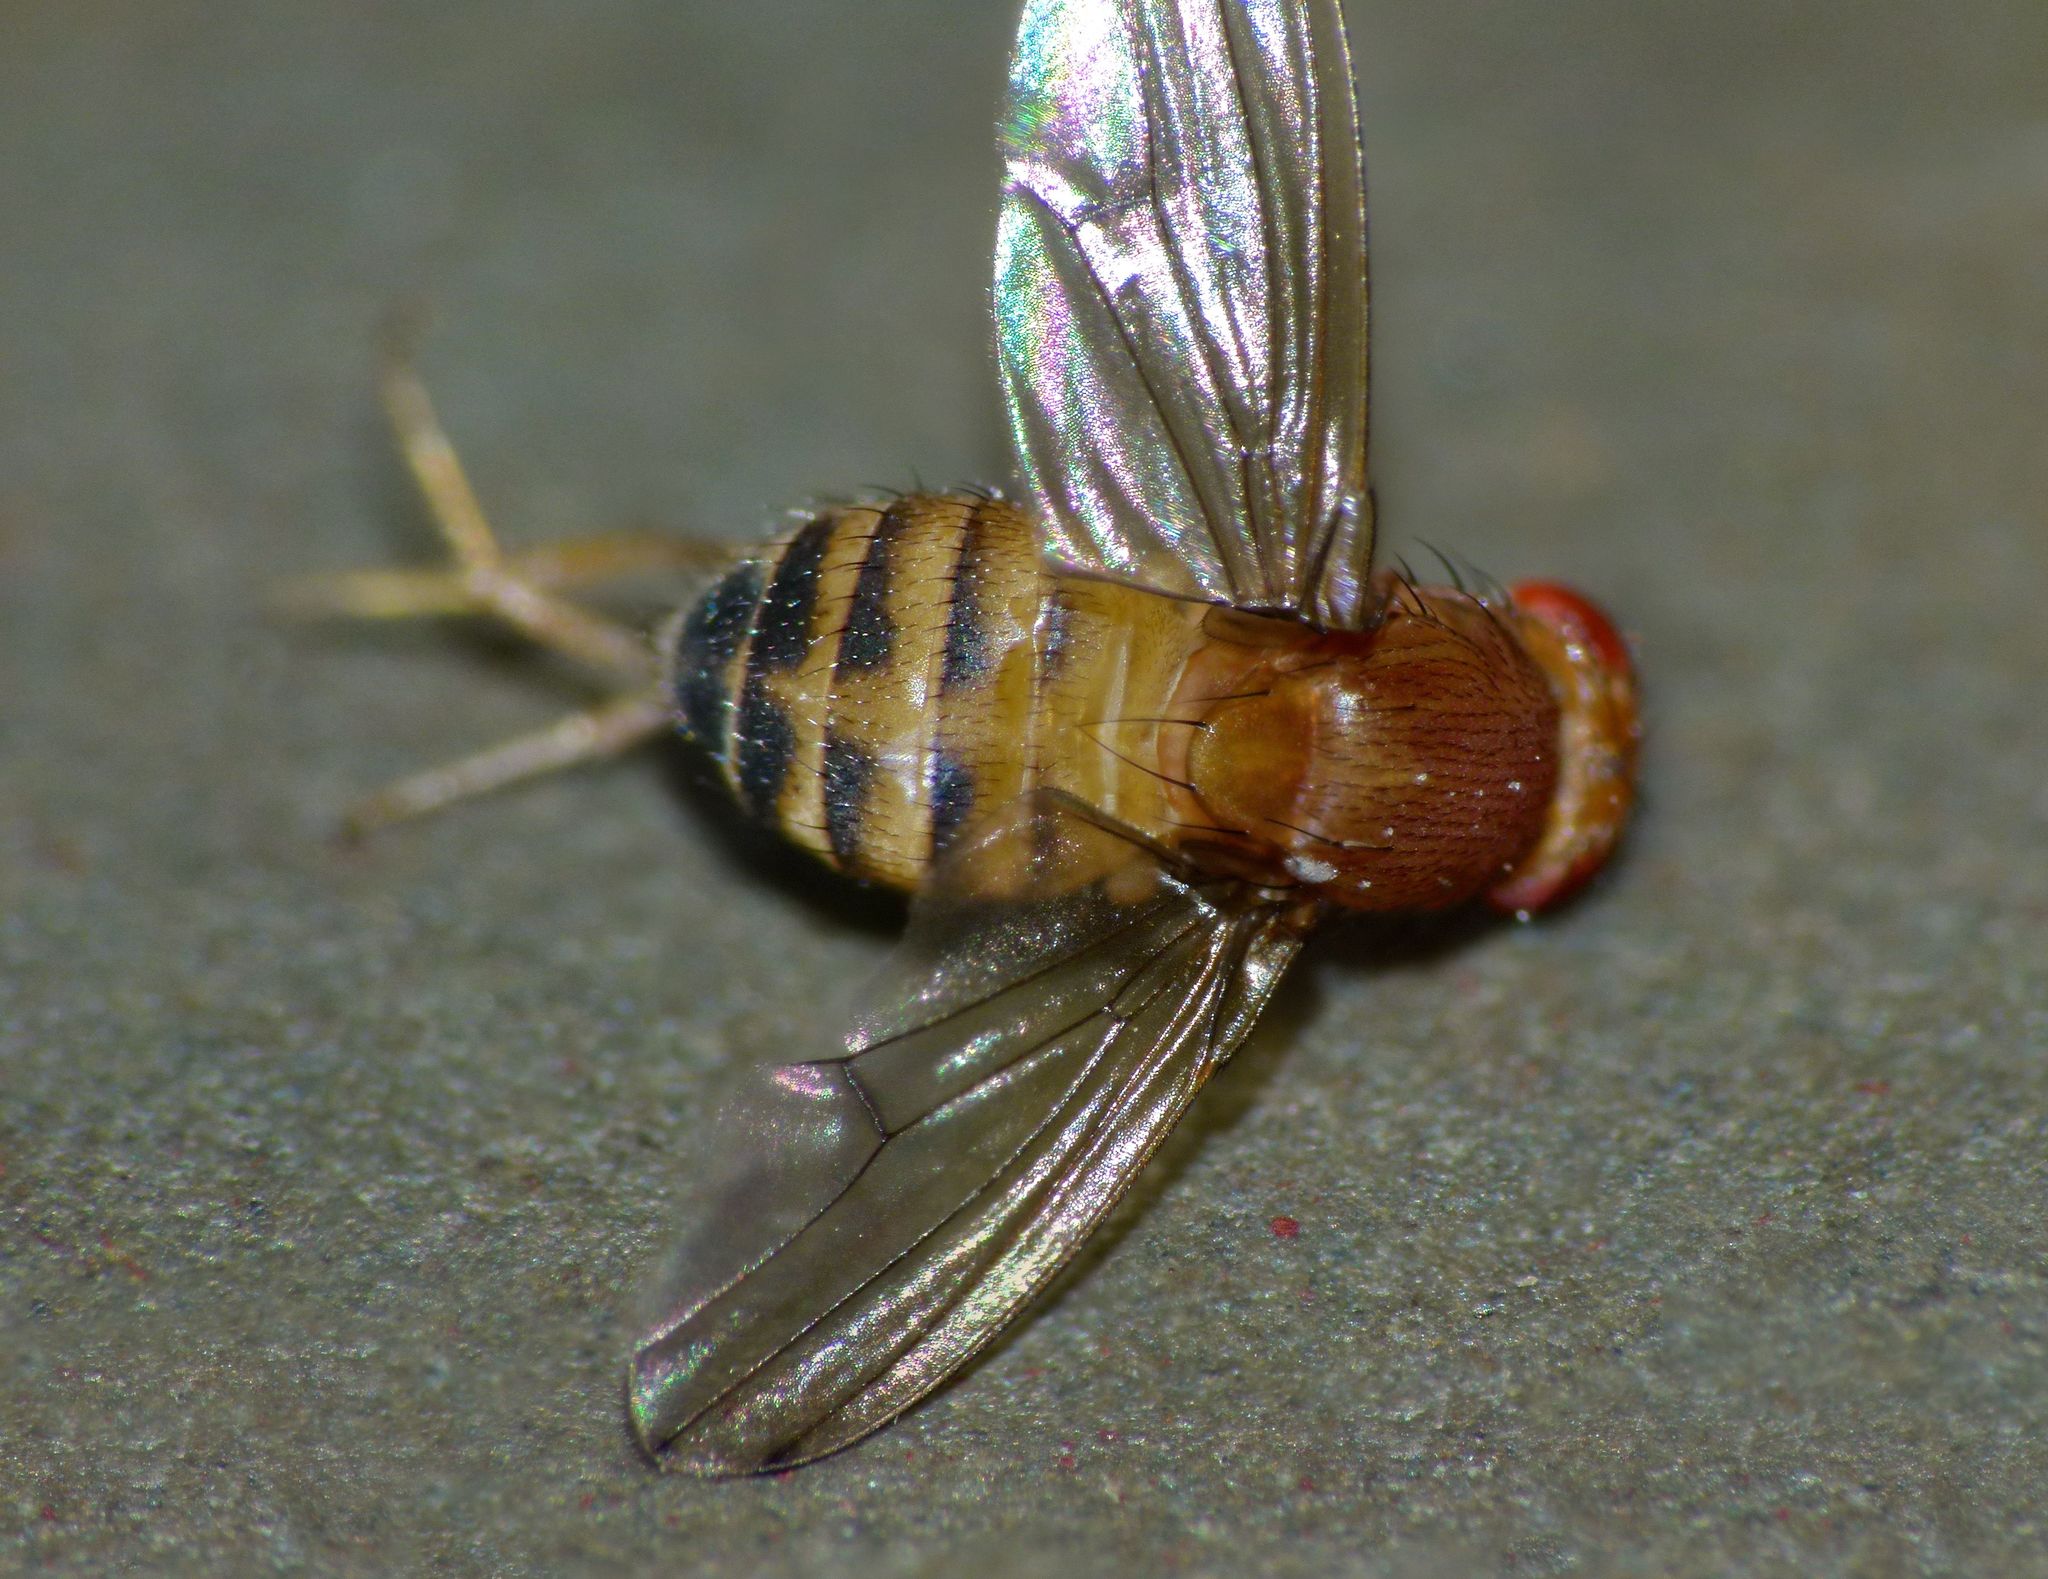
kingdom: Animalia
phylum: Arthropoda
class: Insecta
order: Diptera
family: Drosophilidae
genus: Drosophila
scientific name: Drosophila immigrans
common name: Pomace fly
